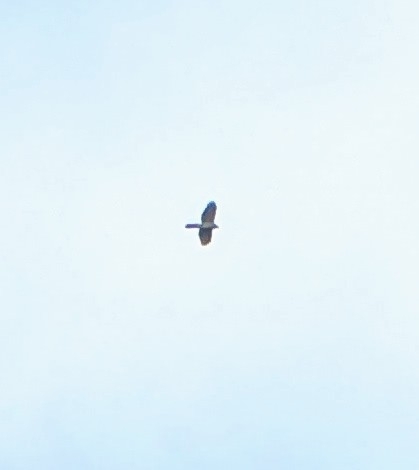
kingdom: Animalia
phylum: Chordata
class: Aves
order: Accipitriformes
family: Accipitridae
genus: Accipiter
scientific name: Accipiter cooperii
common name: Cooper's hawk
